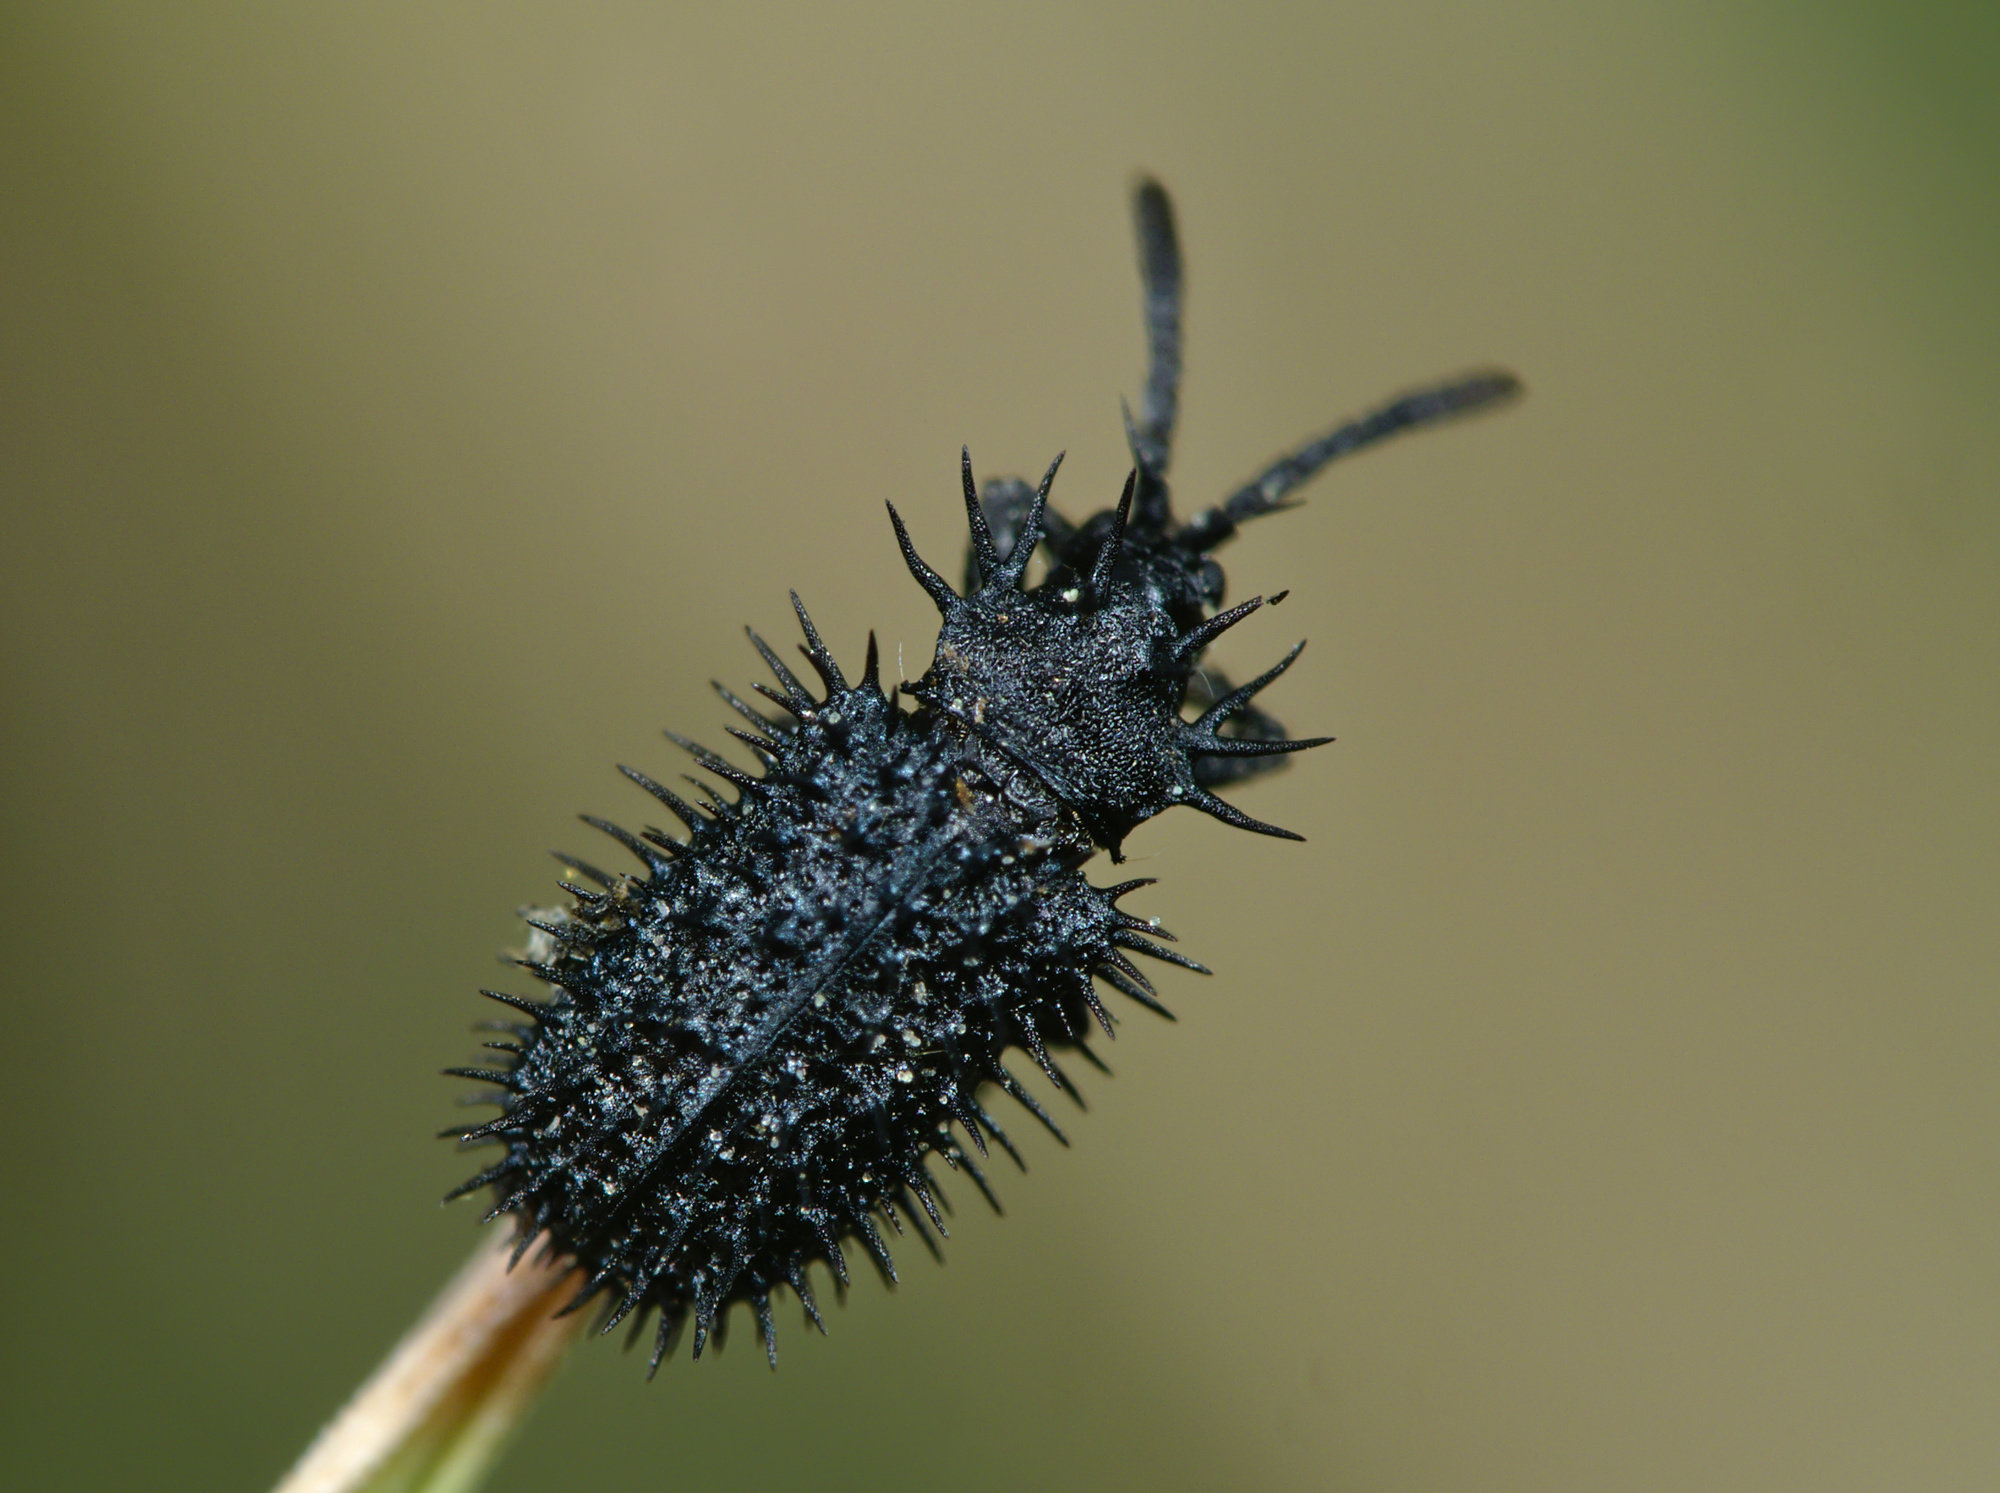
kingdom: Animalia
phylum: Arthropoda
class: Insecta
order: Coleoptera
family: Chrysomelidae
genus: Hispa
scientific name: Hispa atra
